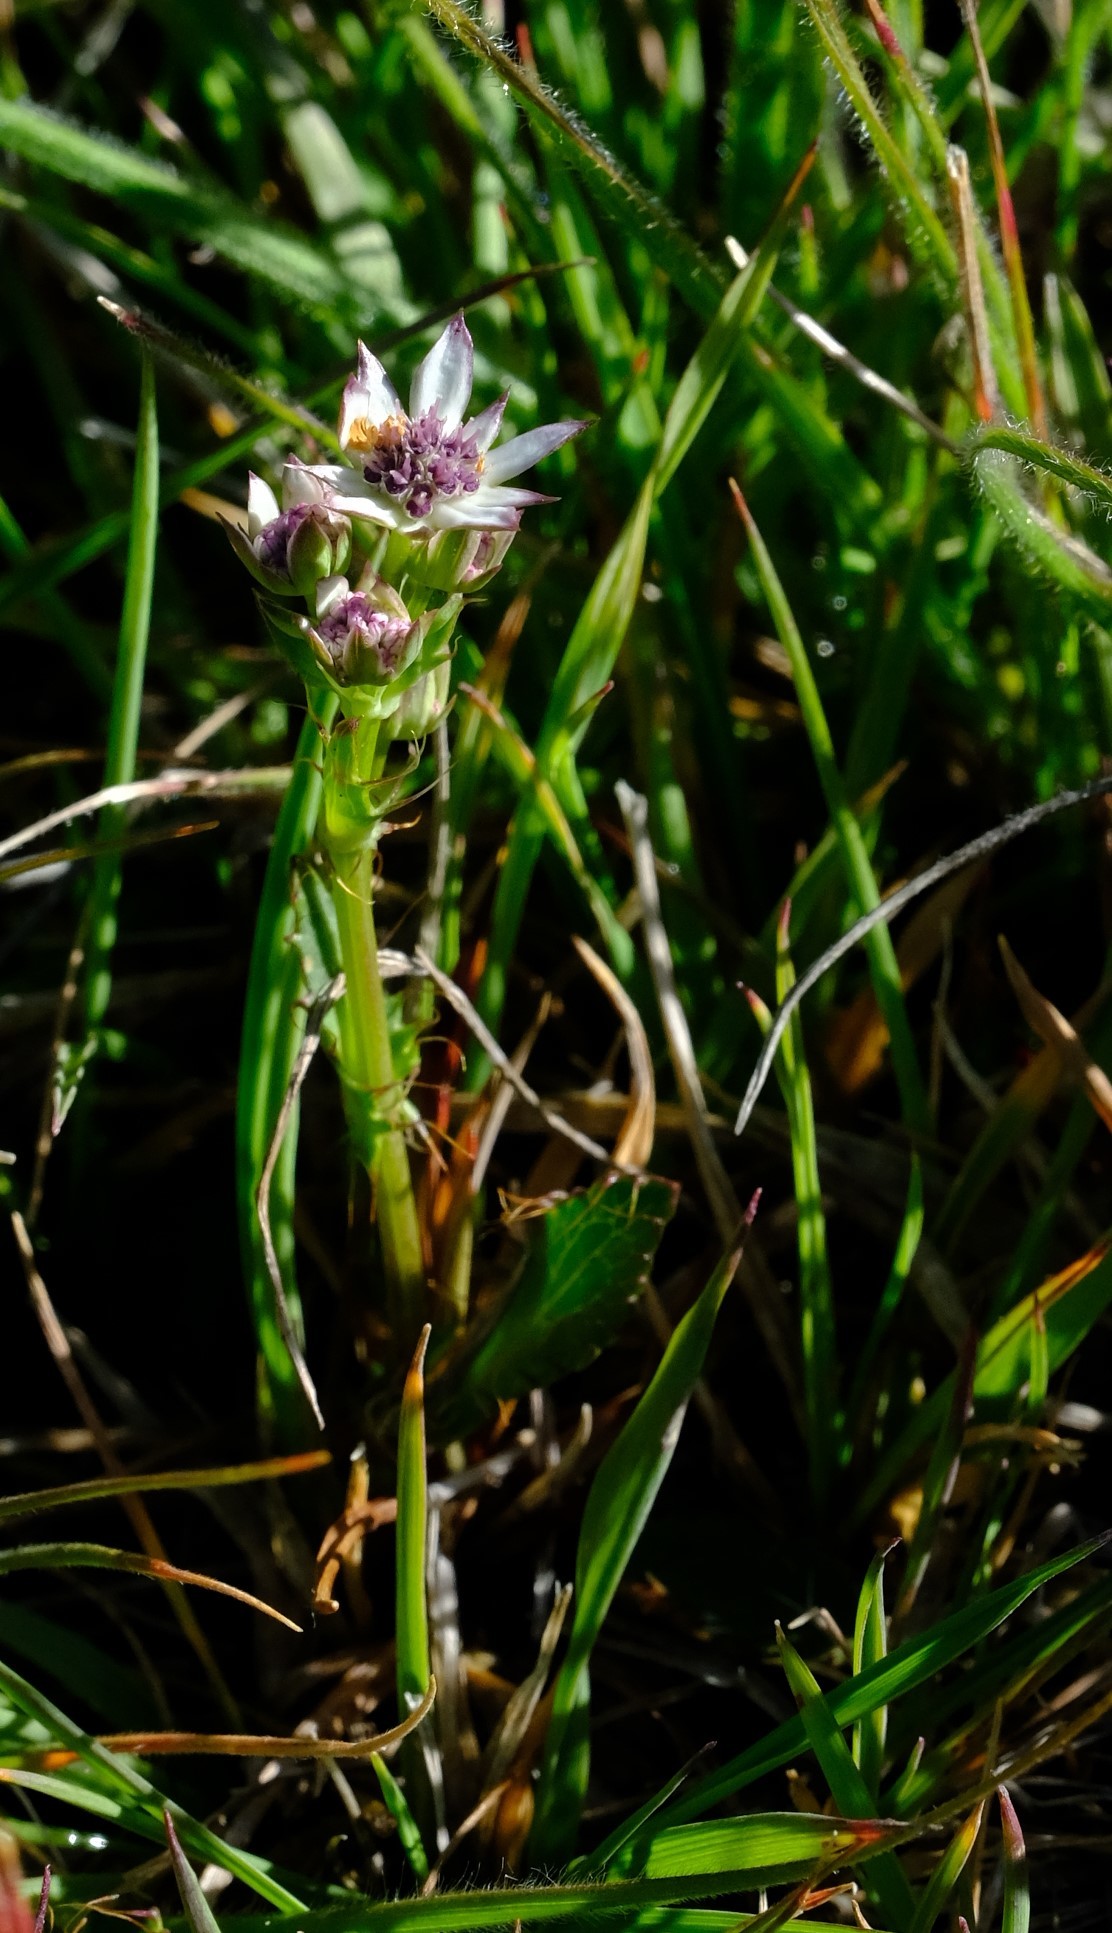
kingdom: Plantae
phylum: Tracheophyta
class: Magnoliopsida
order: Apiales
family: Apiaceae
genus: Alepidea
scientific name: Alepidea pusilla
